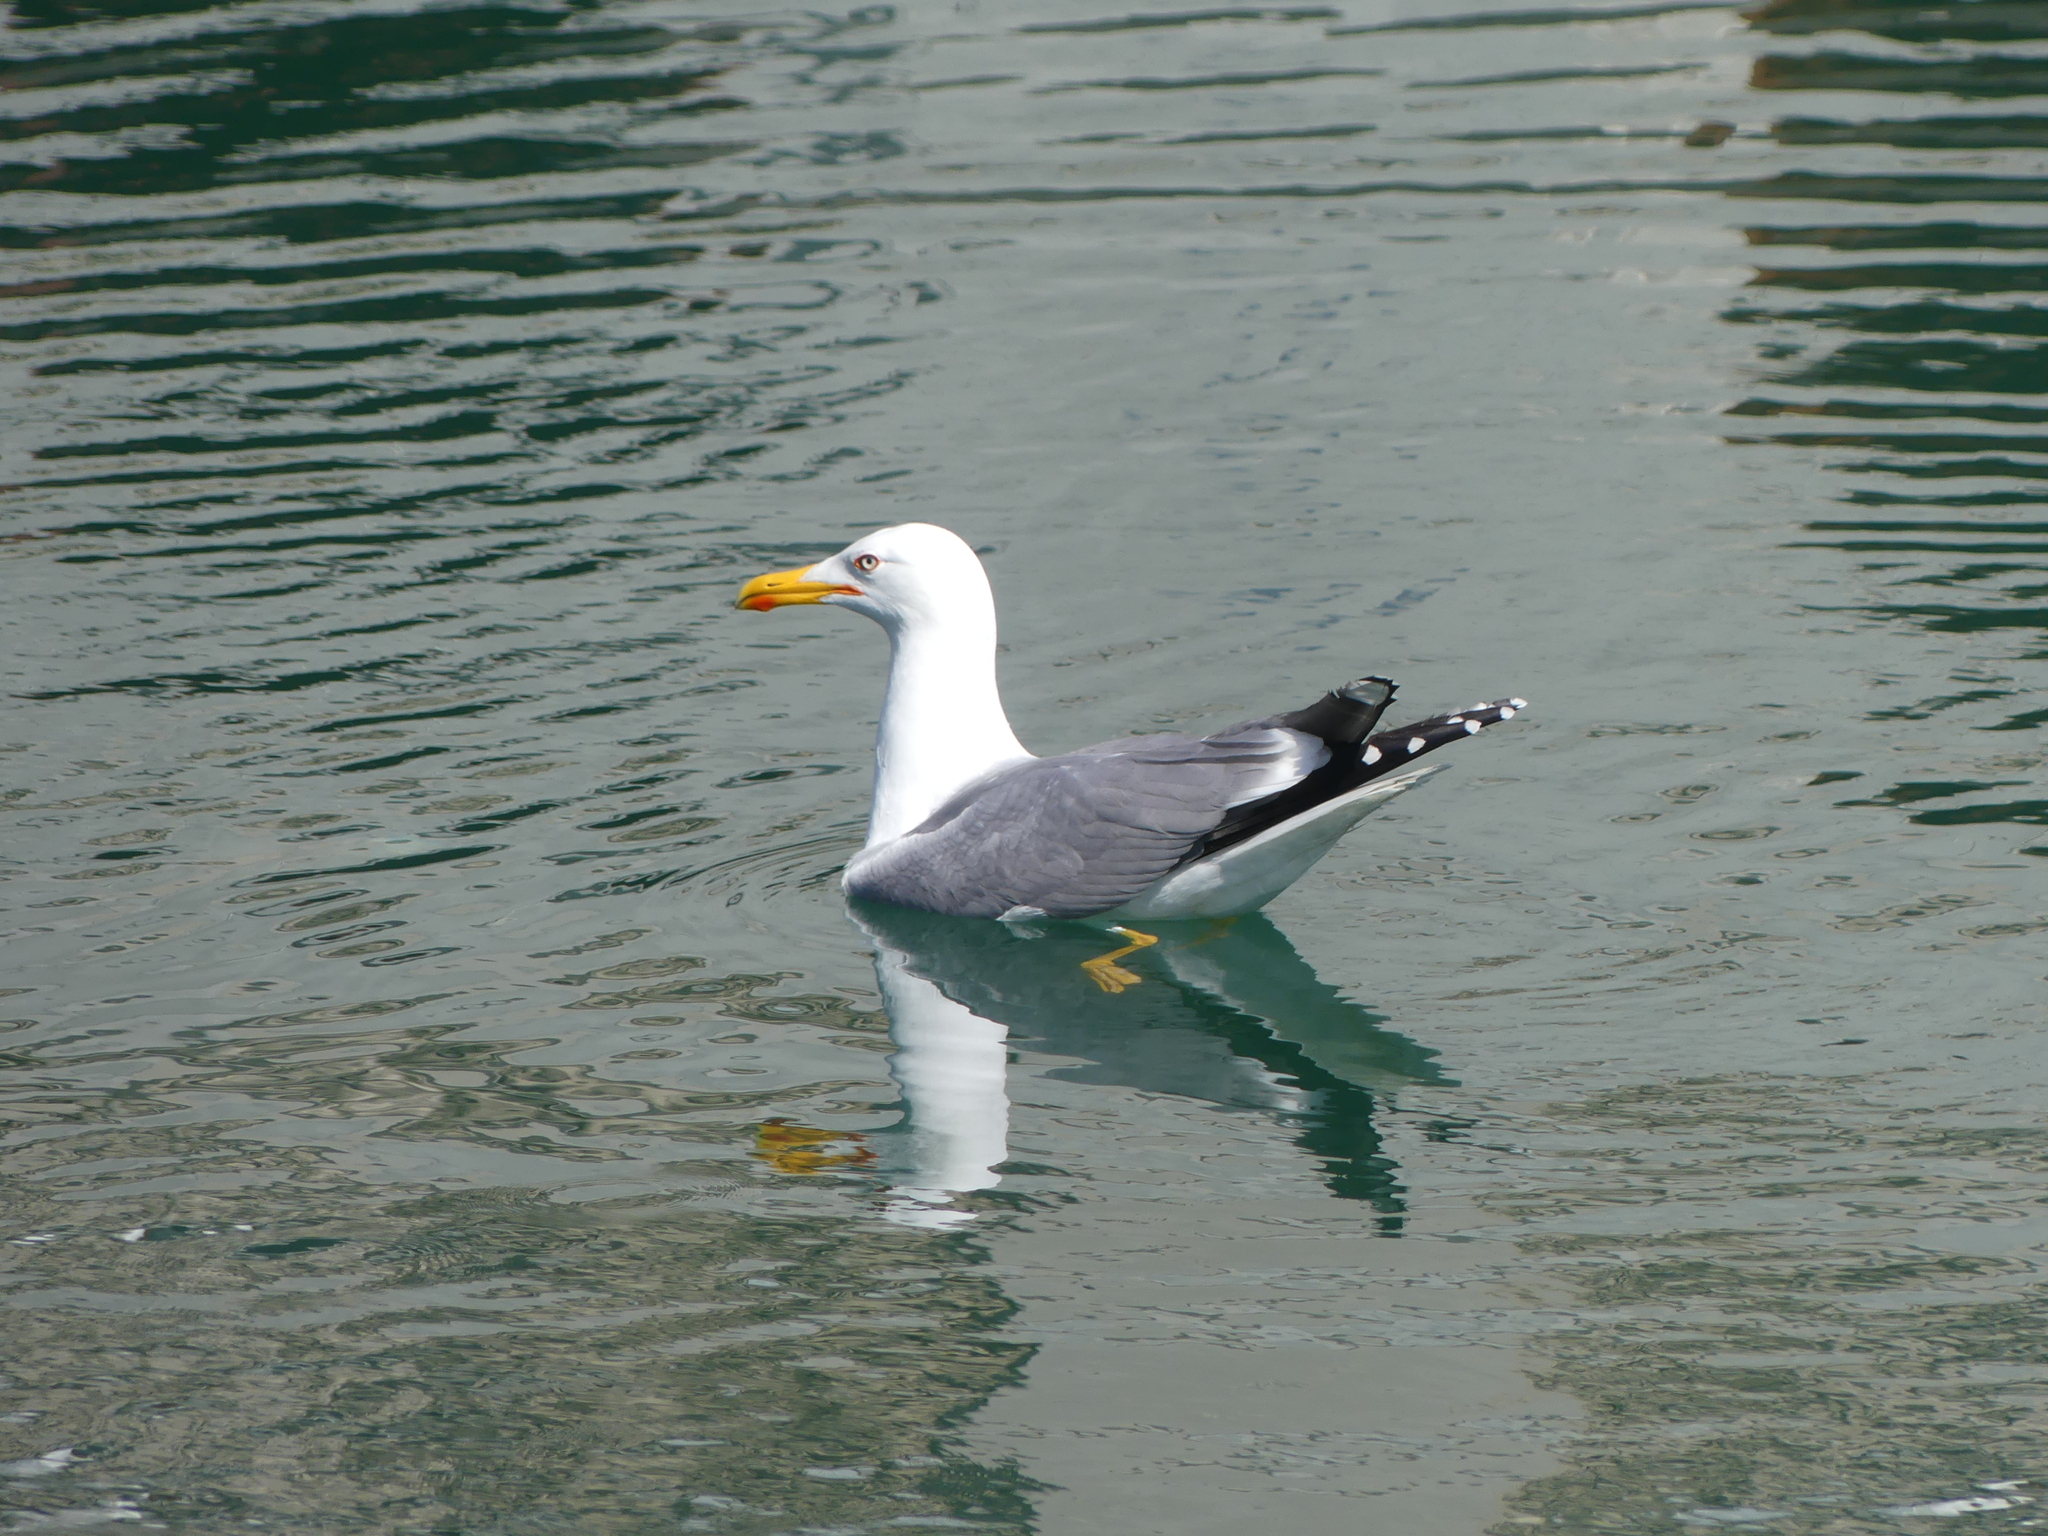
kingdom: Animalia
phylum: Chordata
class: Aves
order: Charadriiformes
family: Laridae
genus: Larus
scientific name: Larus michahellis
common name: Yellow-legged gull
